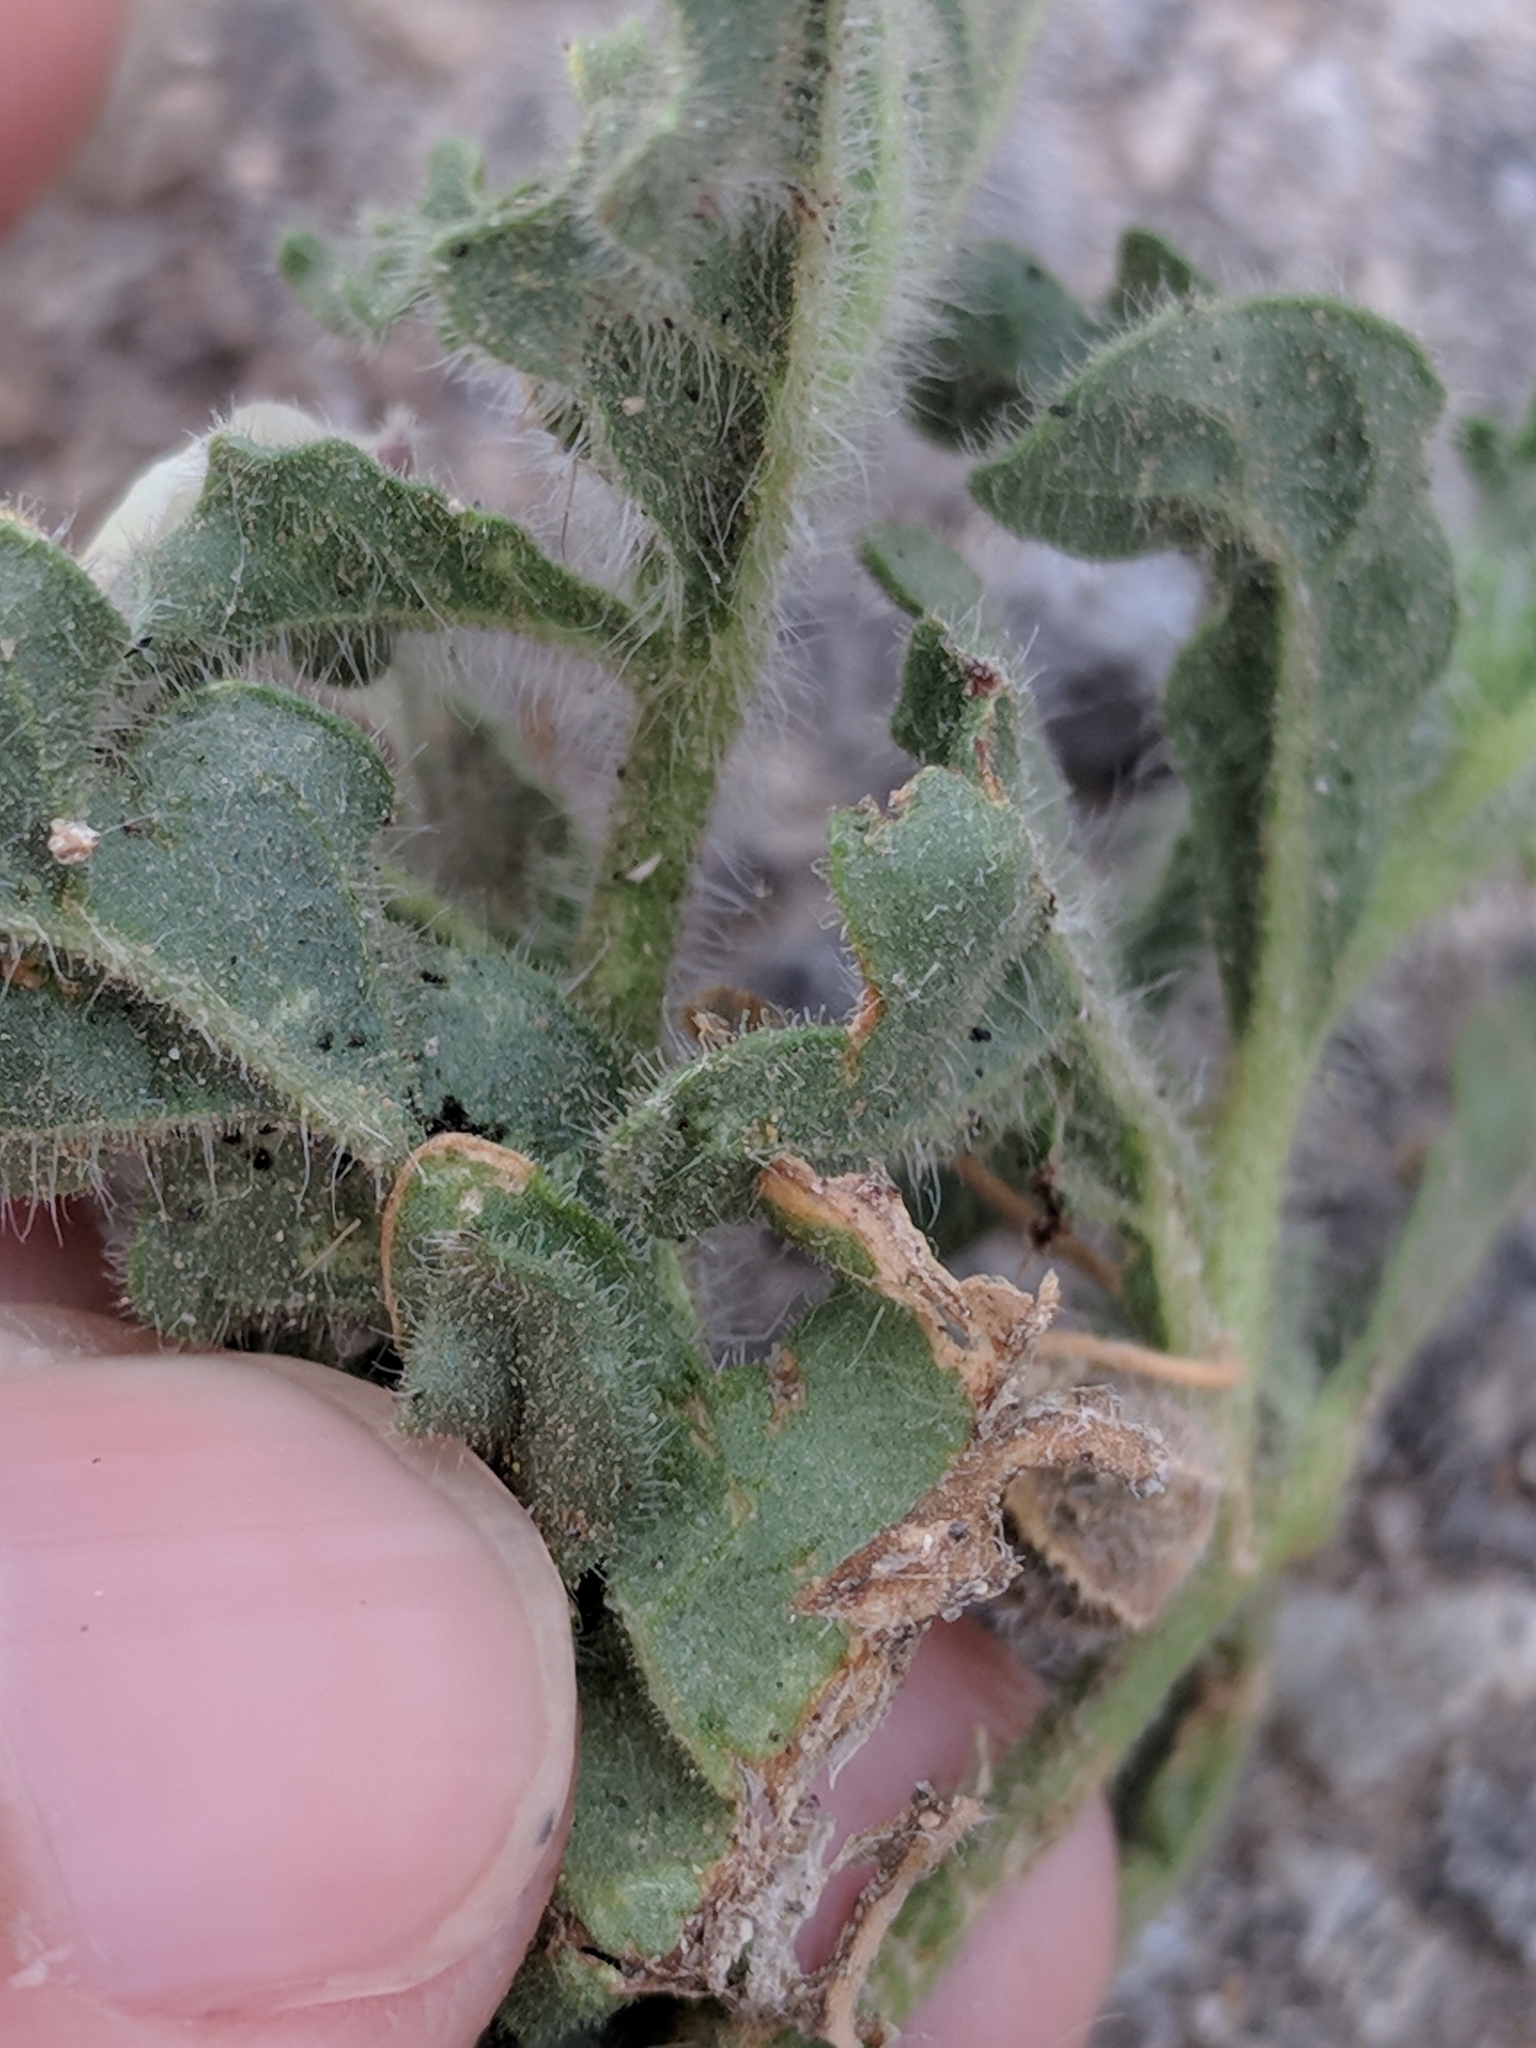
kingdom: Plantae
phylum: Tracheophyta
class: Magnoliopsida
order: Solanales
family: Solanaceae
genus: Chamaesaracha
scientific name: Chamaesaracha coniodes
